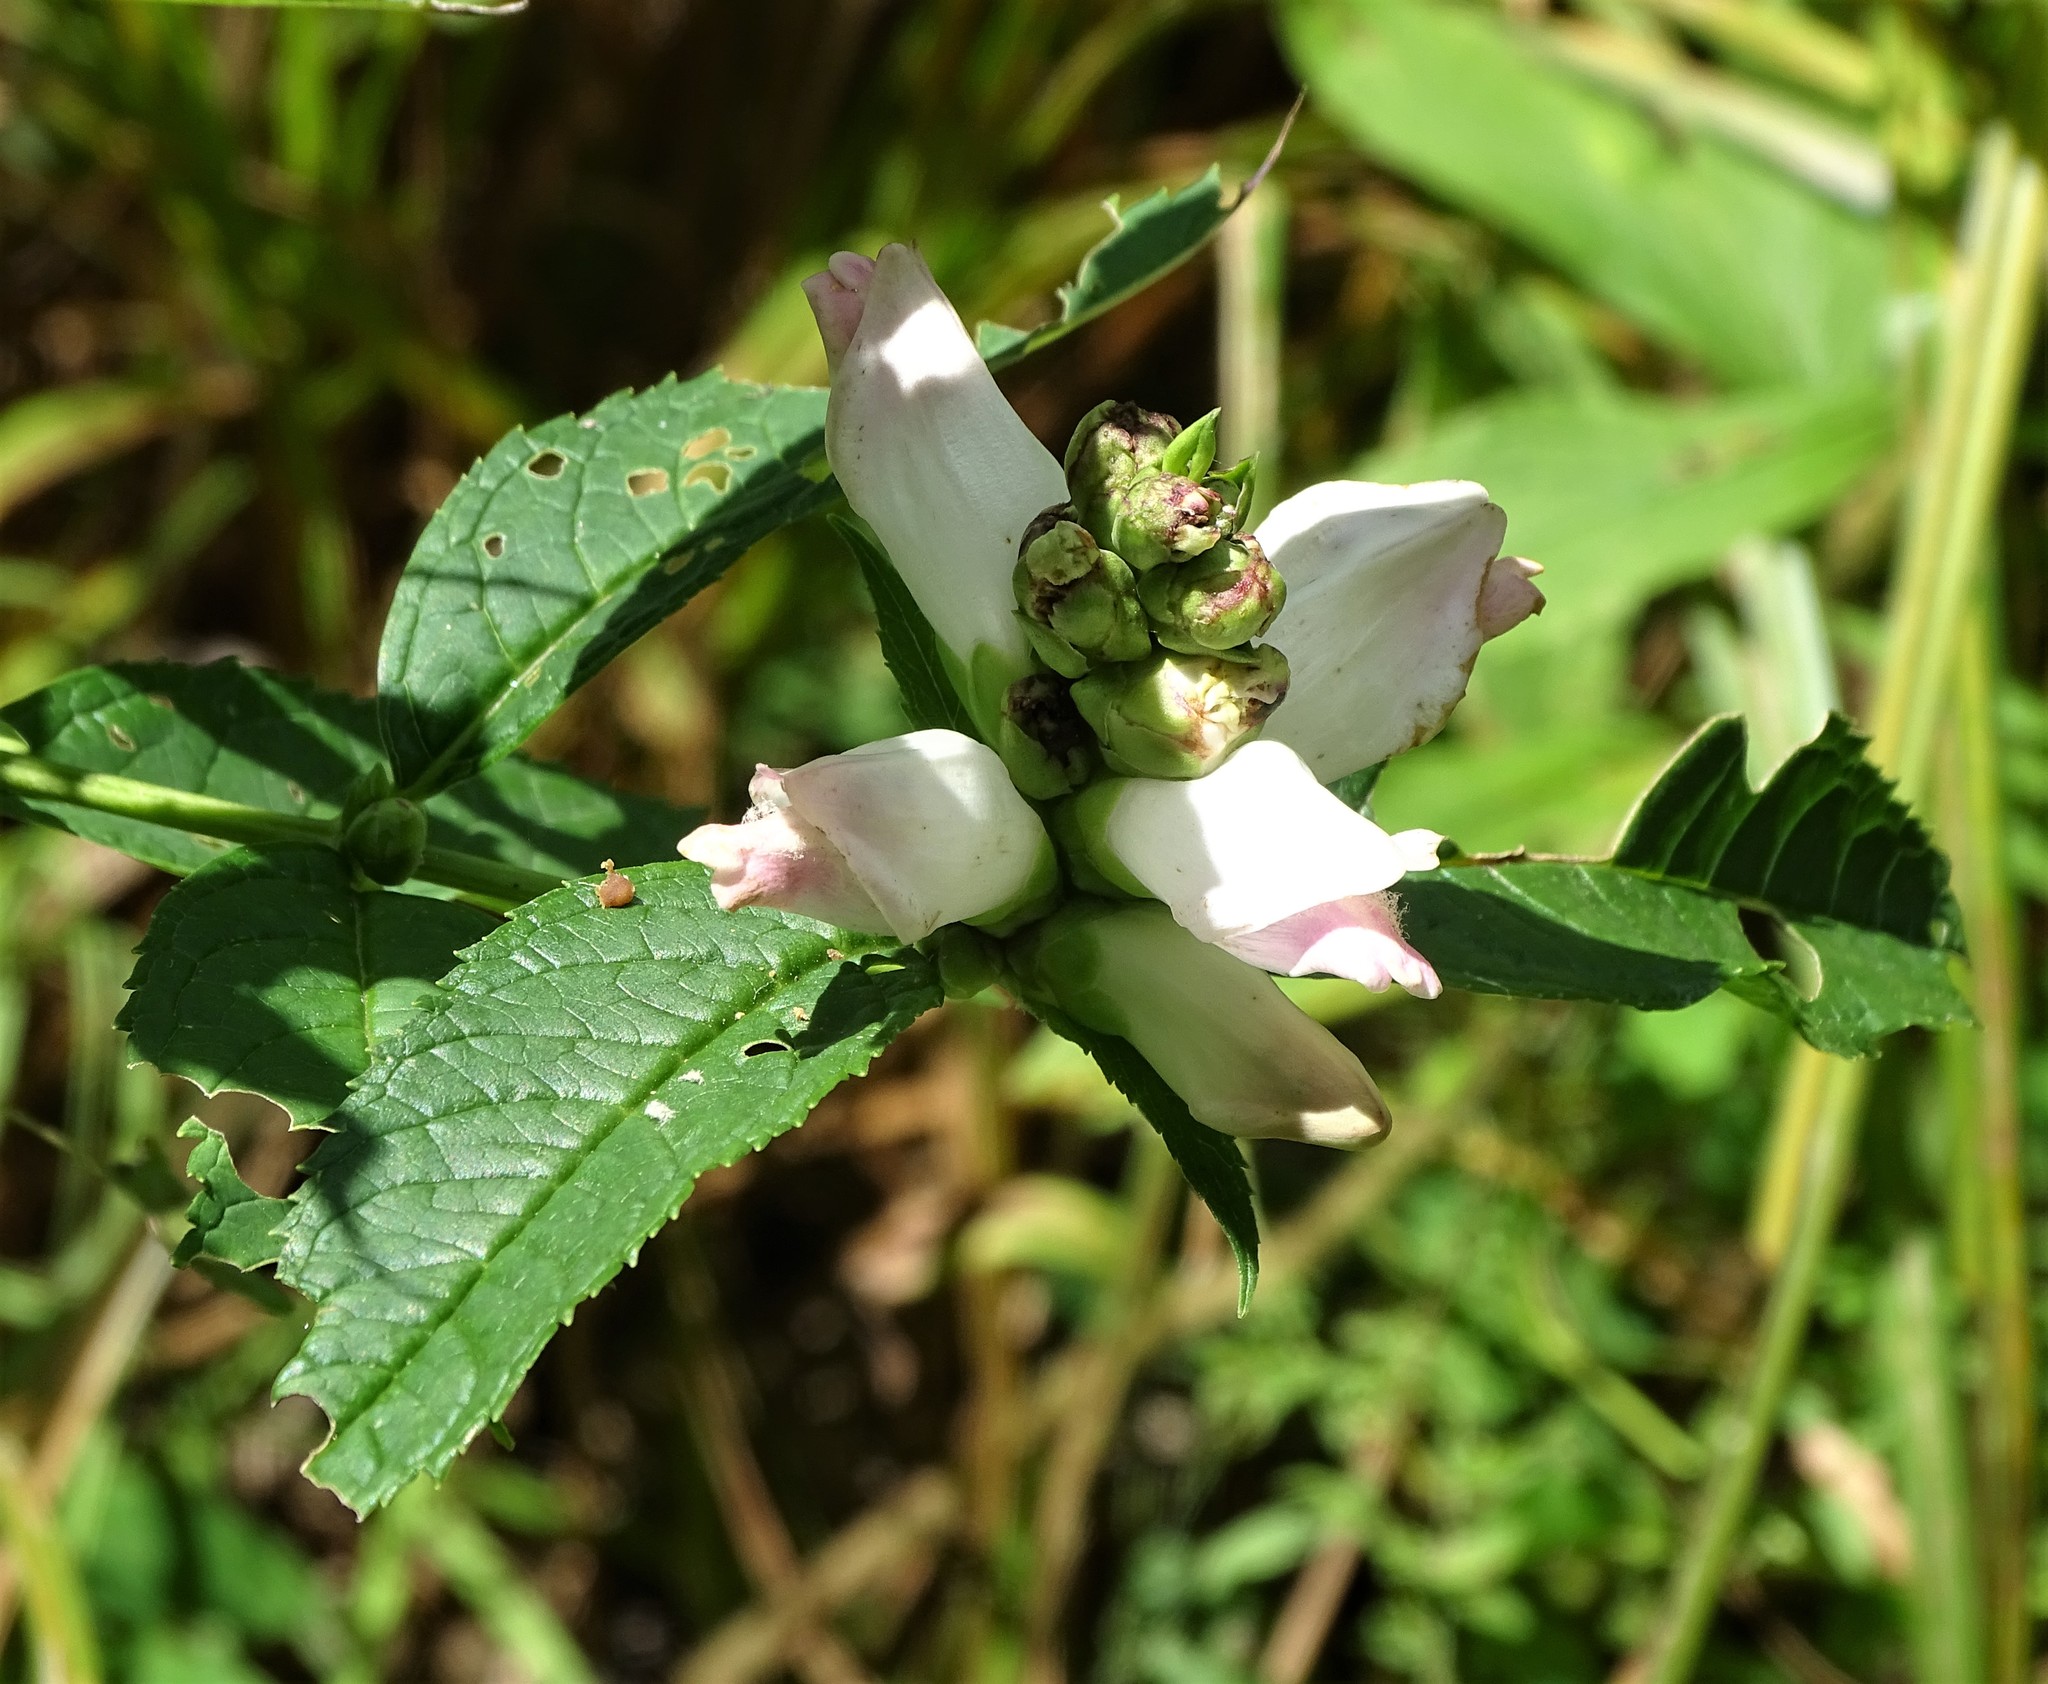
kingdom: Plantae
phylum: Tracheophyta
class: Magnoliopsida
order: Lamiales
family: Plantaginaceae
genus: Chelone
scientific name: Chelone glabra
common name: Snakehead
